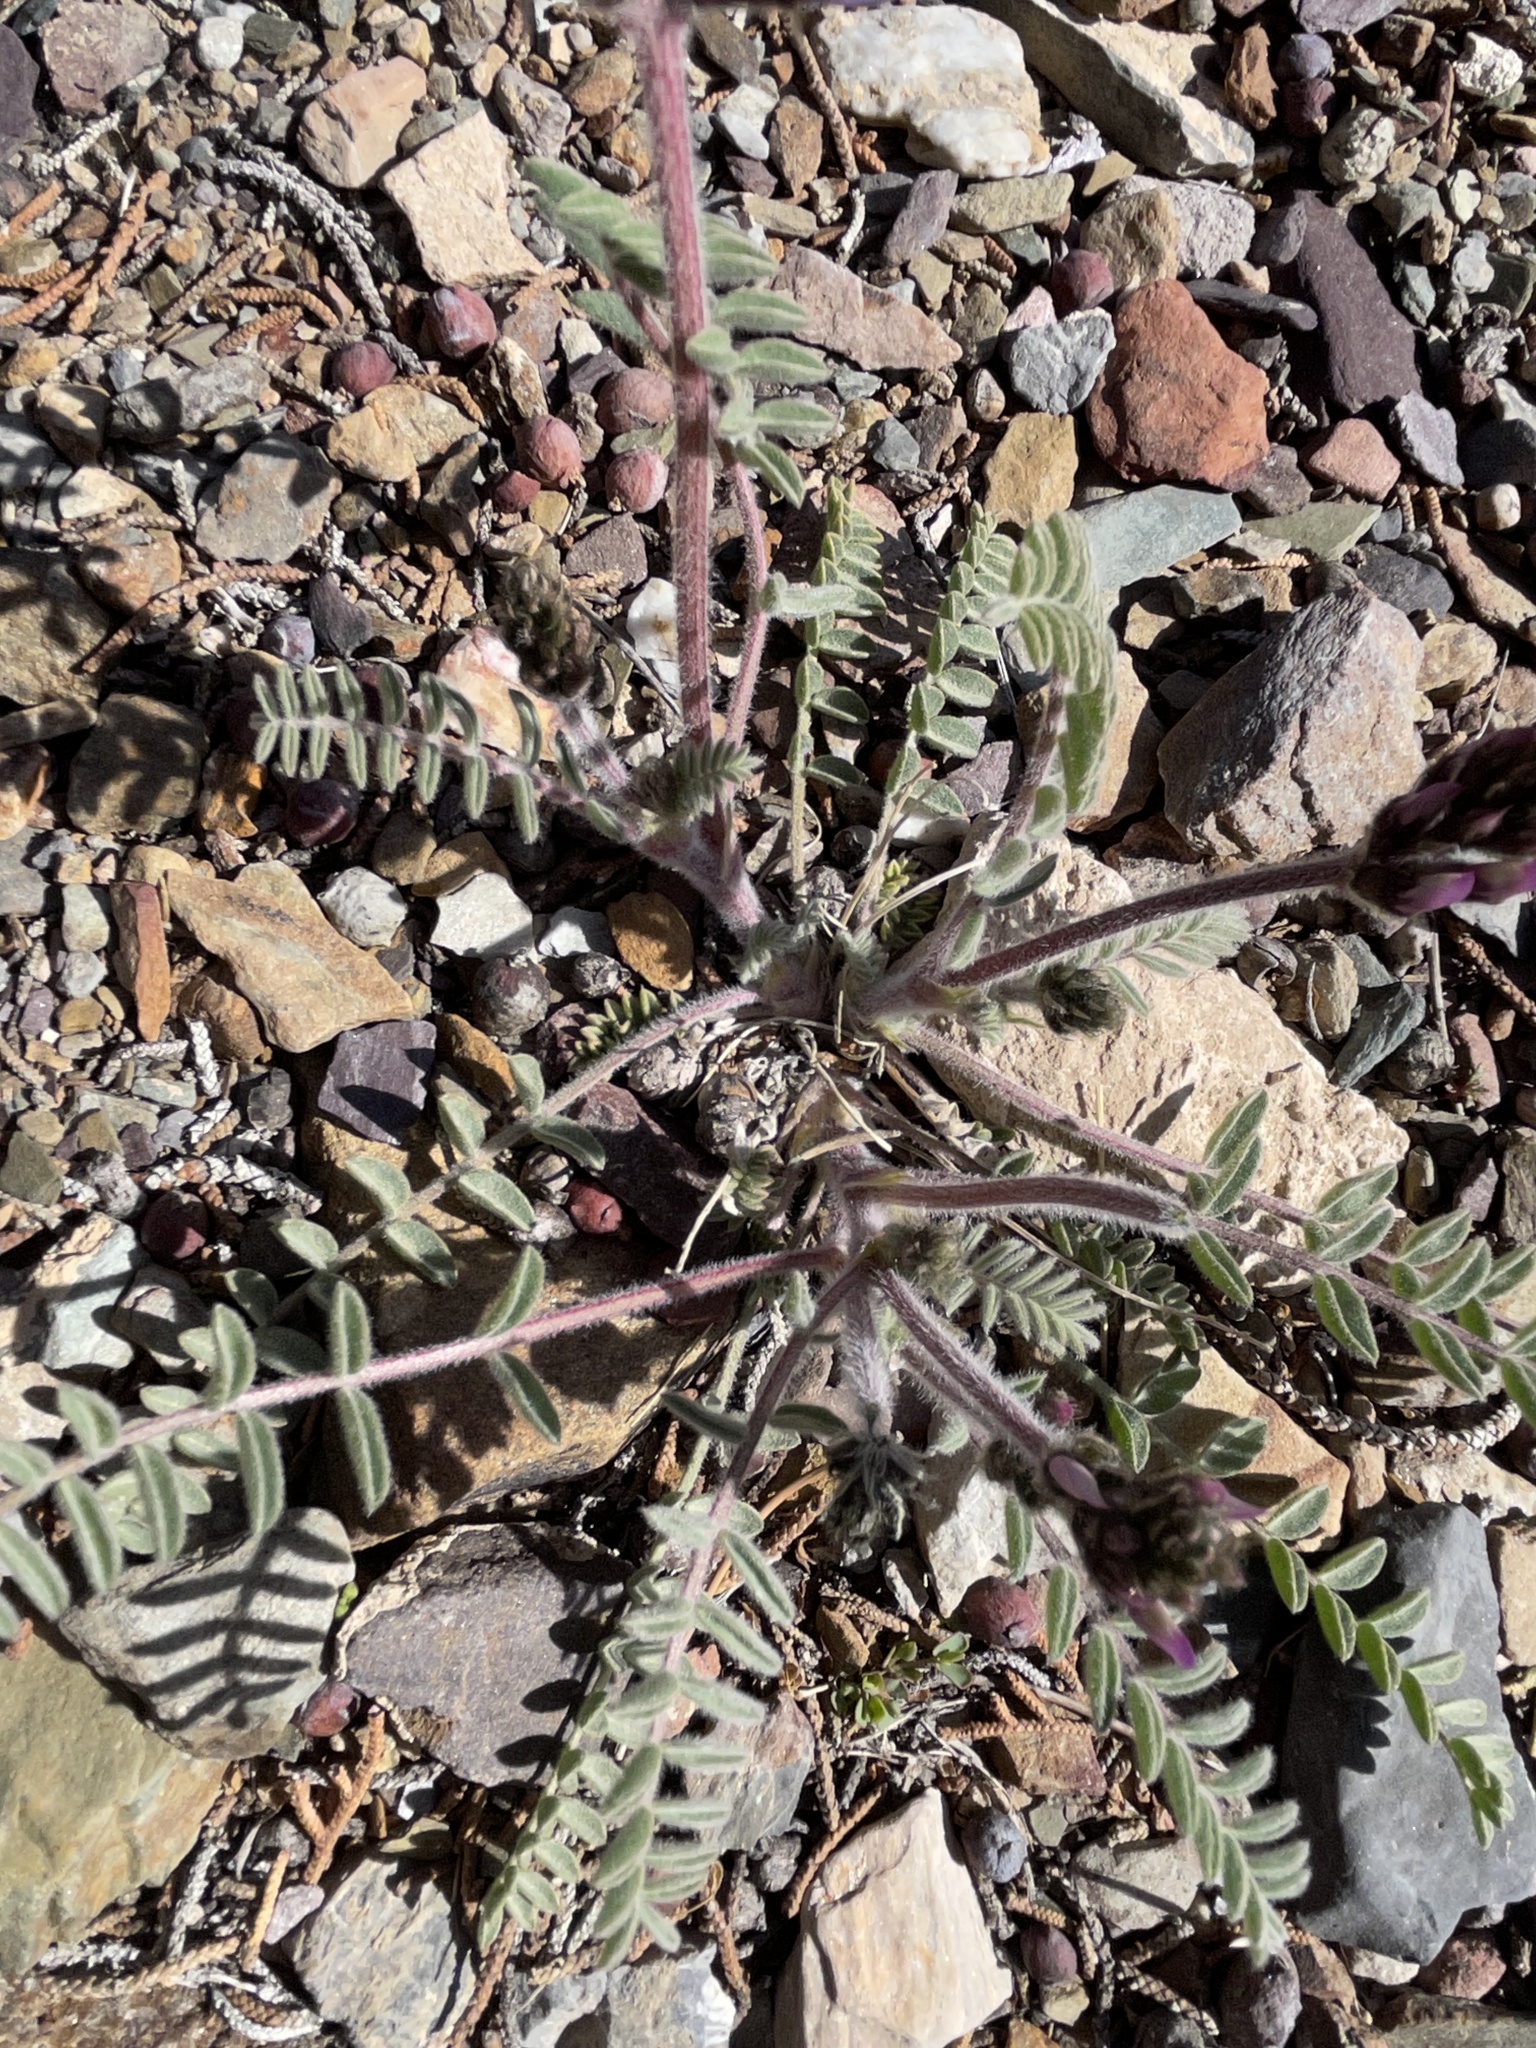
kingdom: Plantae
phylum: Tracheophyta
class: Magnoliopsida
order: Fabales
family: Fabaceae
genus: Astragalus
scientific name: Astragalus layneae
